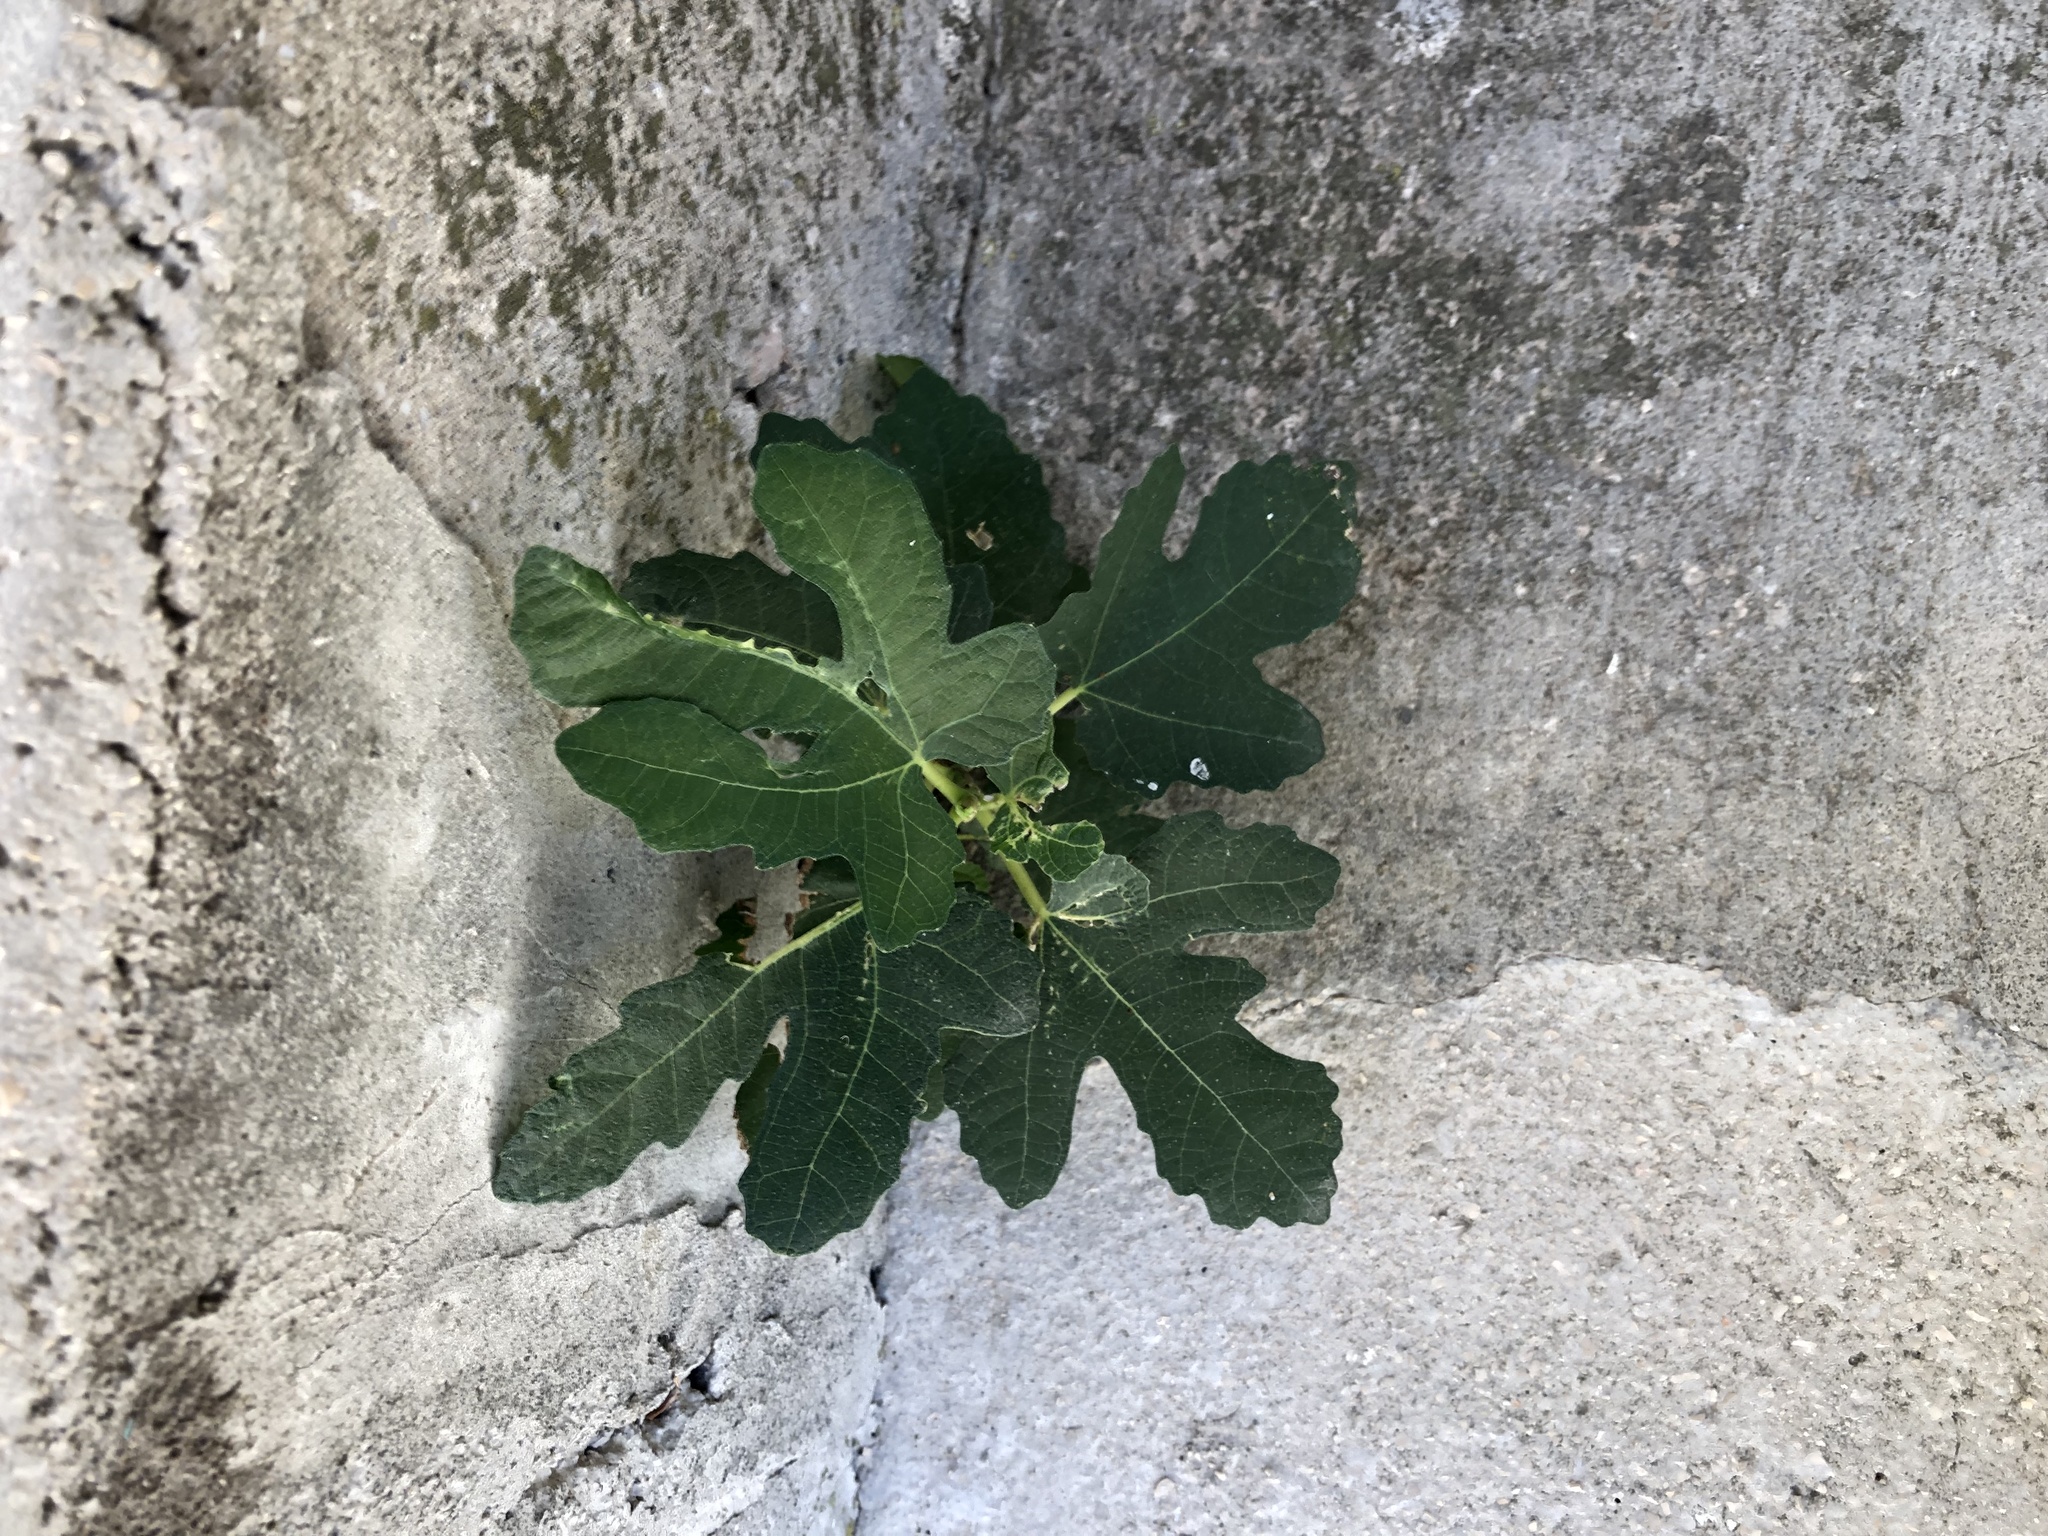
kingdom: Plantae
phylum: Tracheophyta
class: Magnoliopsida
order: Rosales
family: Moraceae
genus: Ficus
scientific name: Ficus carica
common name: Fig
